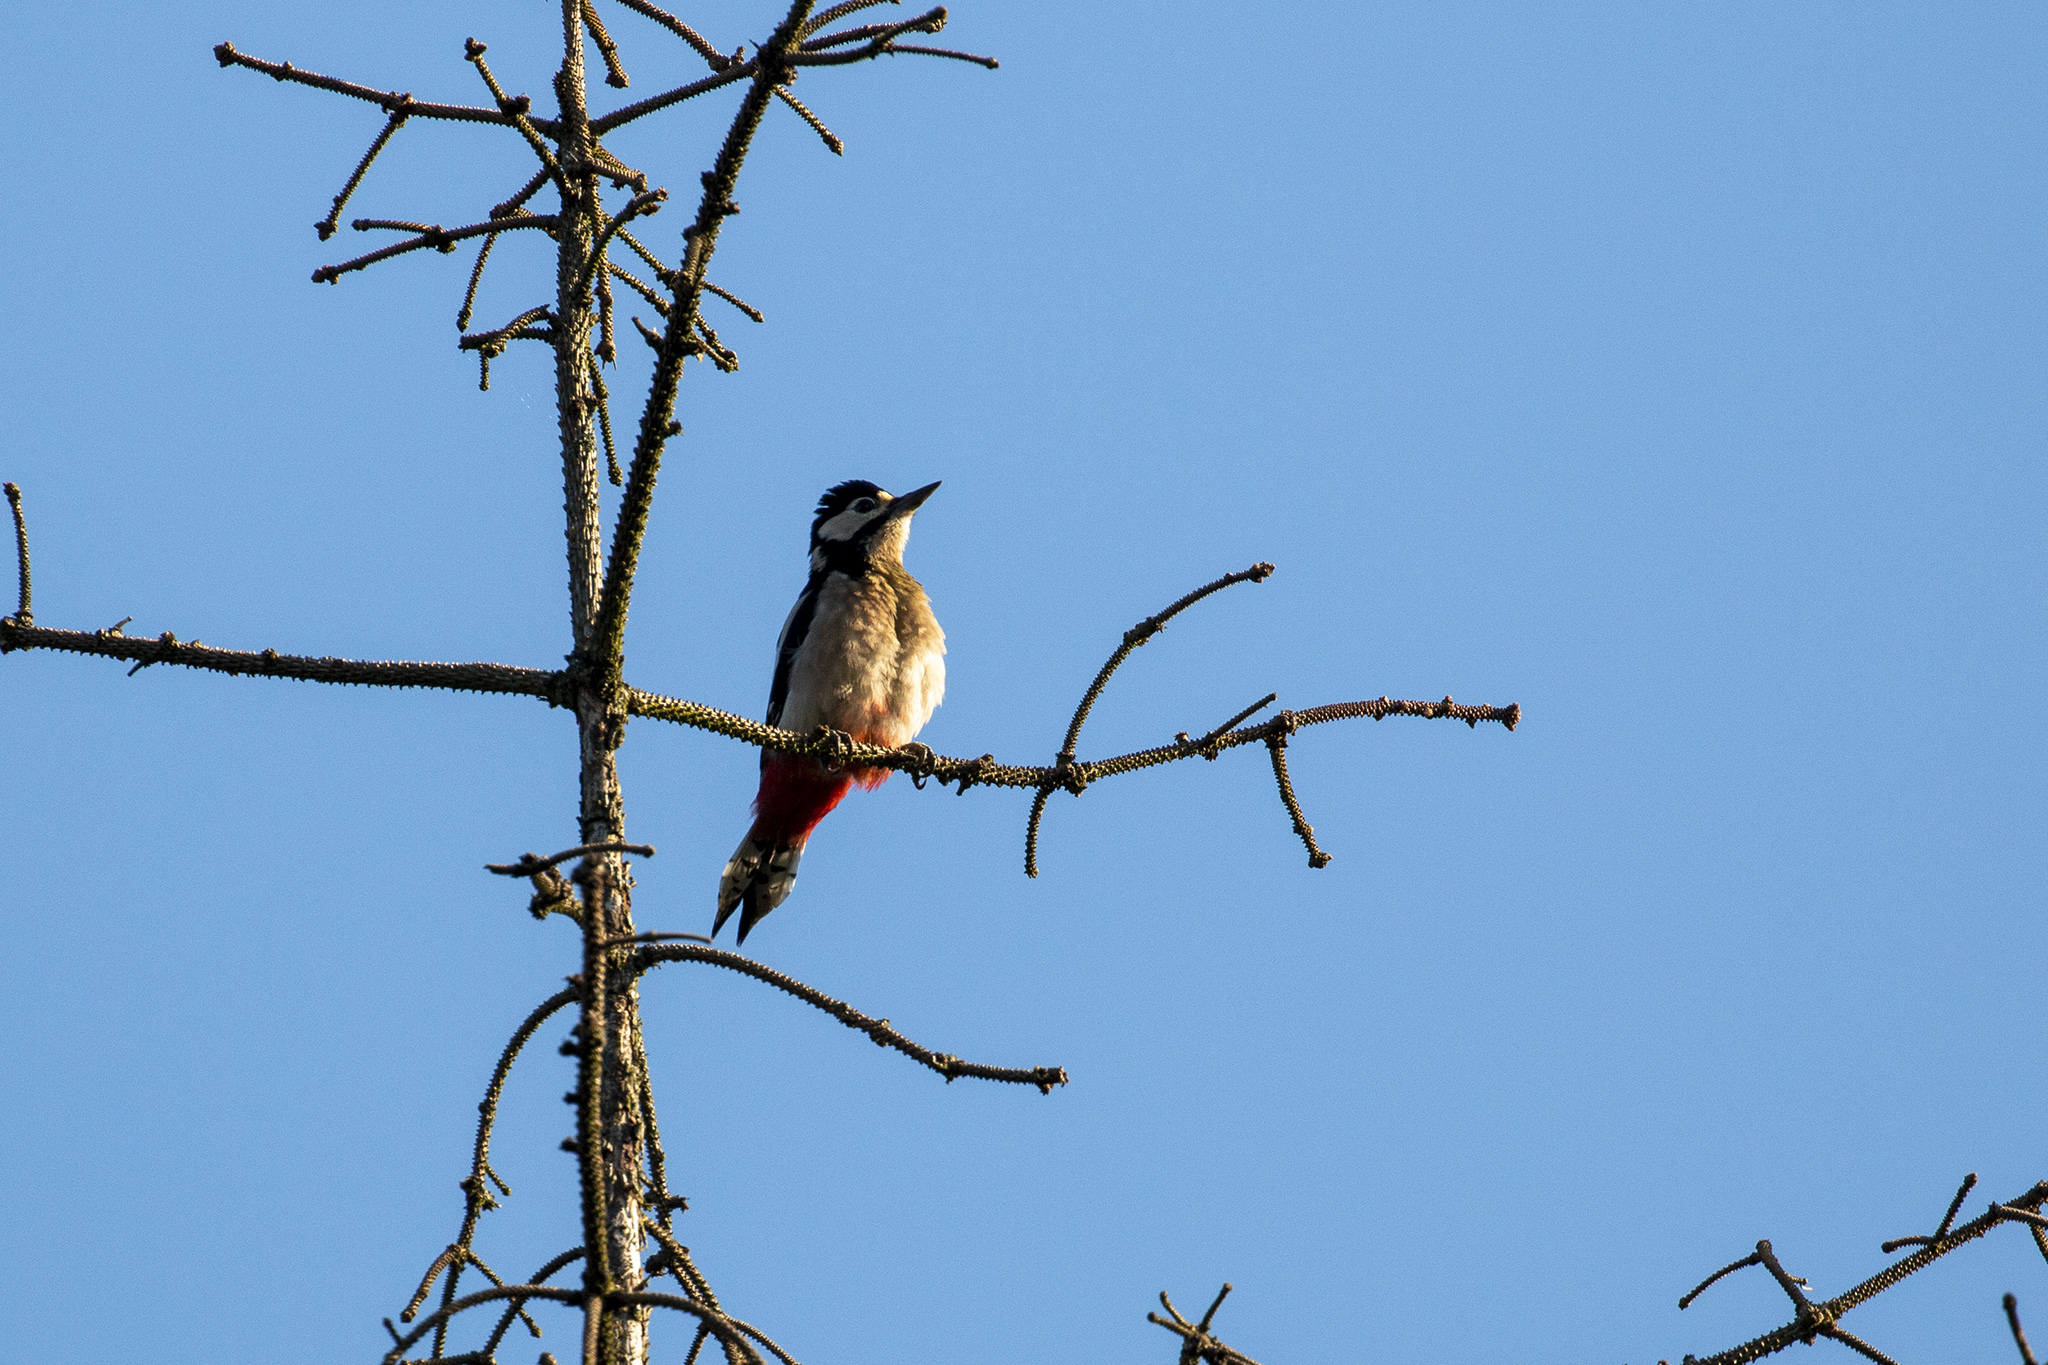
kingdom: Animalia
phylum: Chordata
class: Aves
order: Piciformes
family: Picidae
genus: Dendrocopos
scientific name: Dendrocopos major
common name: Great spotted woodpecker
